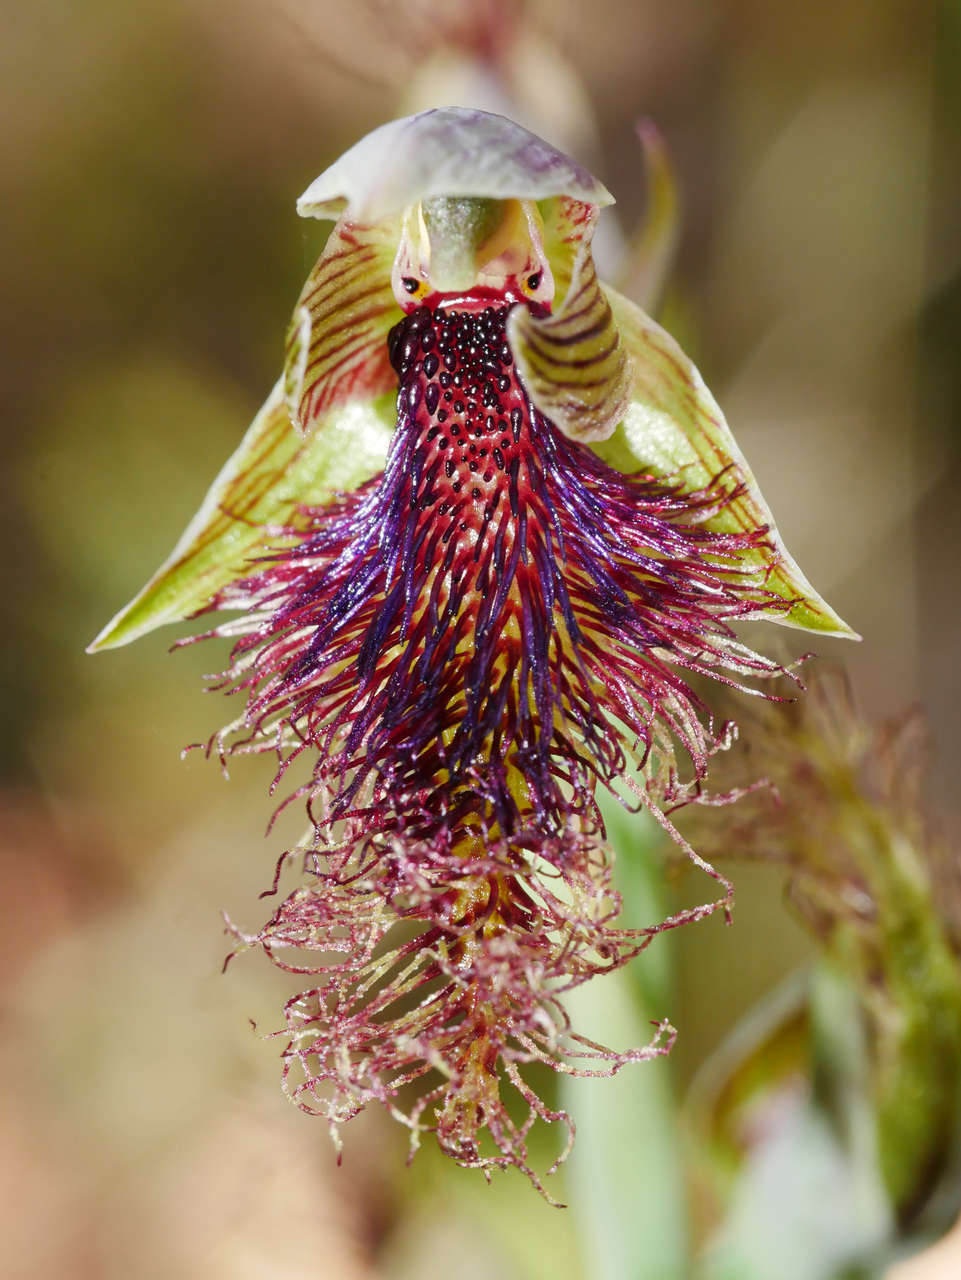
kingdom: Plantae
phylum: Tracheophyta
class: Liliopsida
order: Asparagales
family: Orchidaceae
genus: Calochilus
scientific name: Calochilus robertsonii
